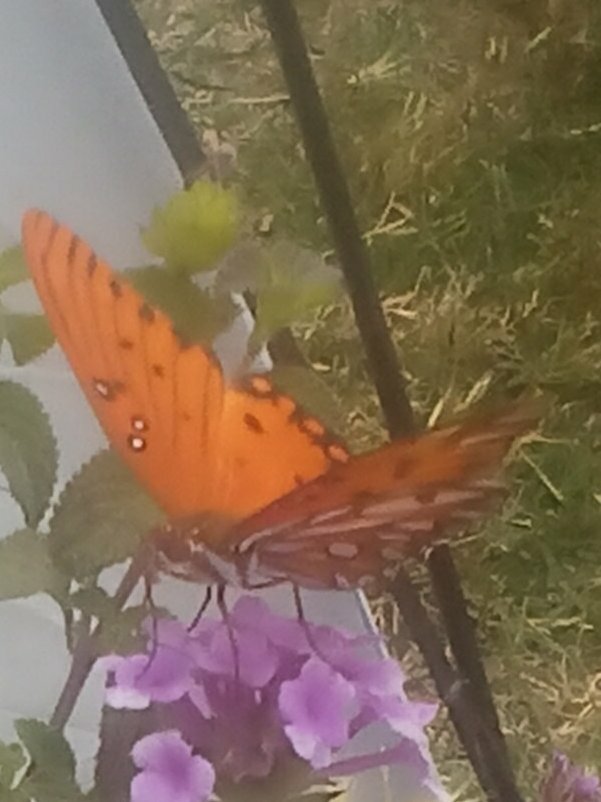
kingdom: Animalia
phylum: Arthropoda
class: Insecta
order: Lepidoptera
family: Nymphalidae
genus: Dione
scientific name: Dione vanillae
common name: Gulf fritillary
